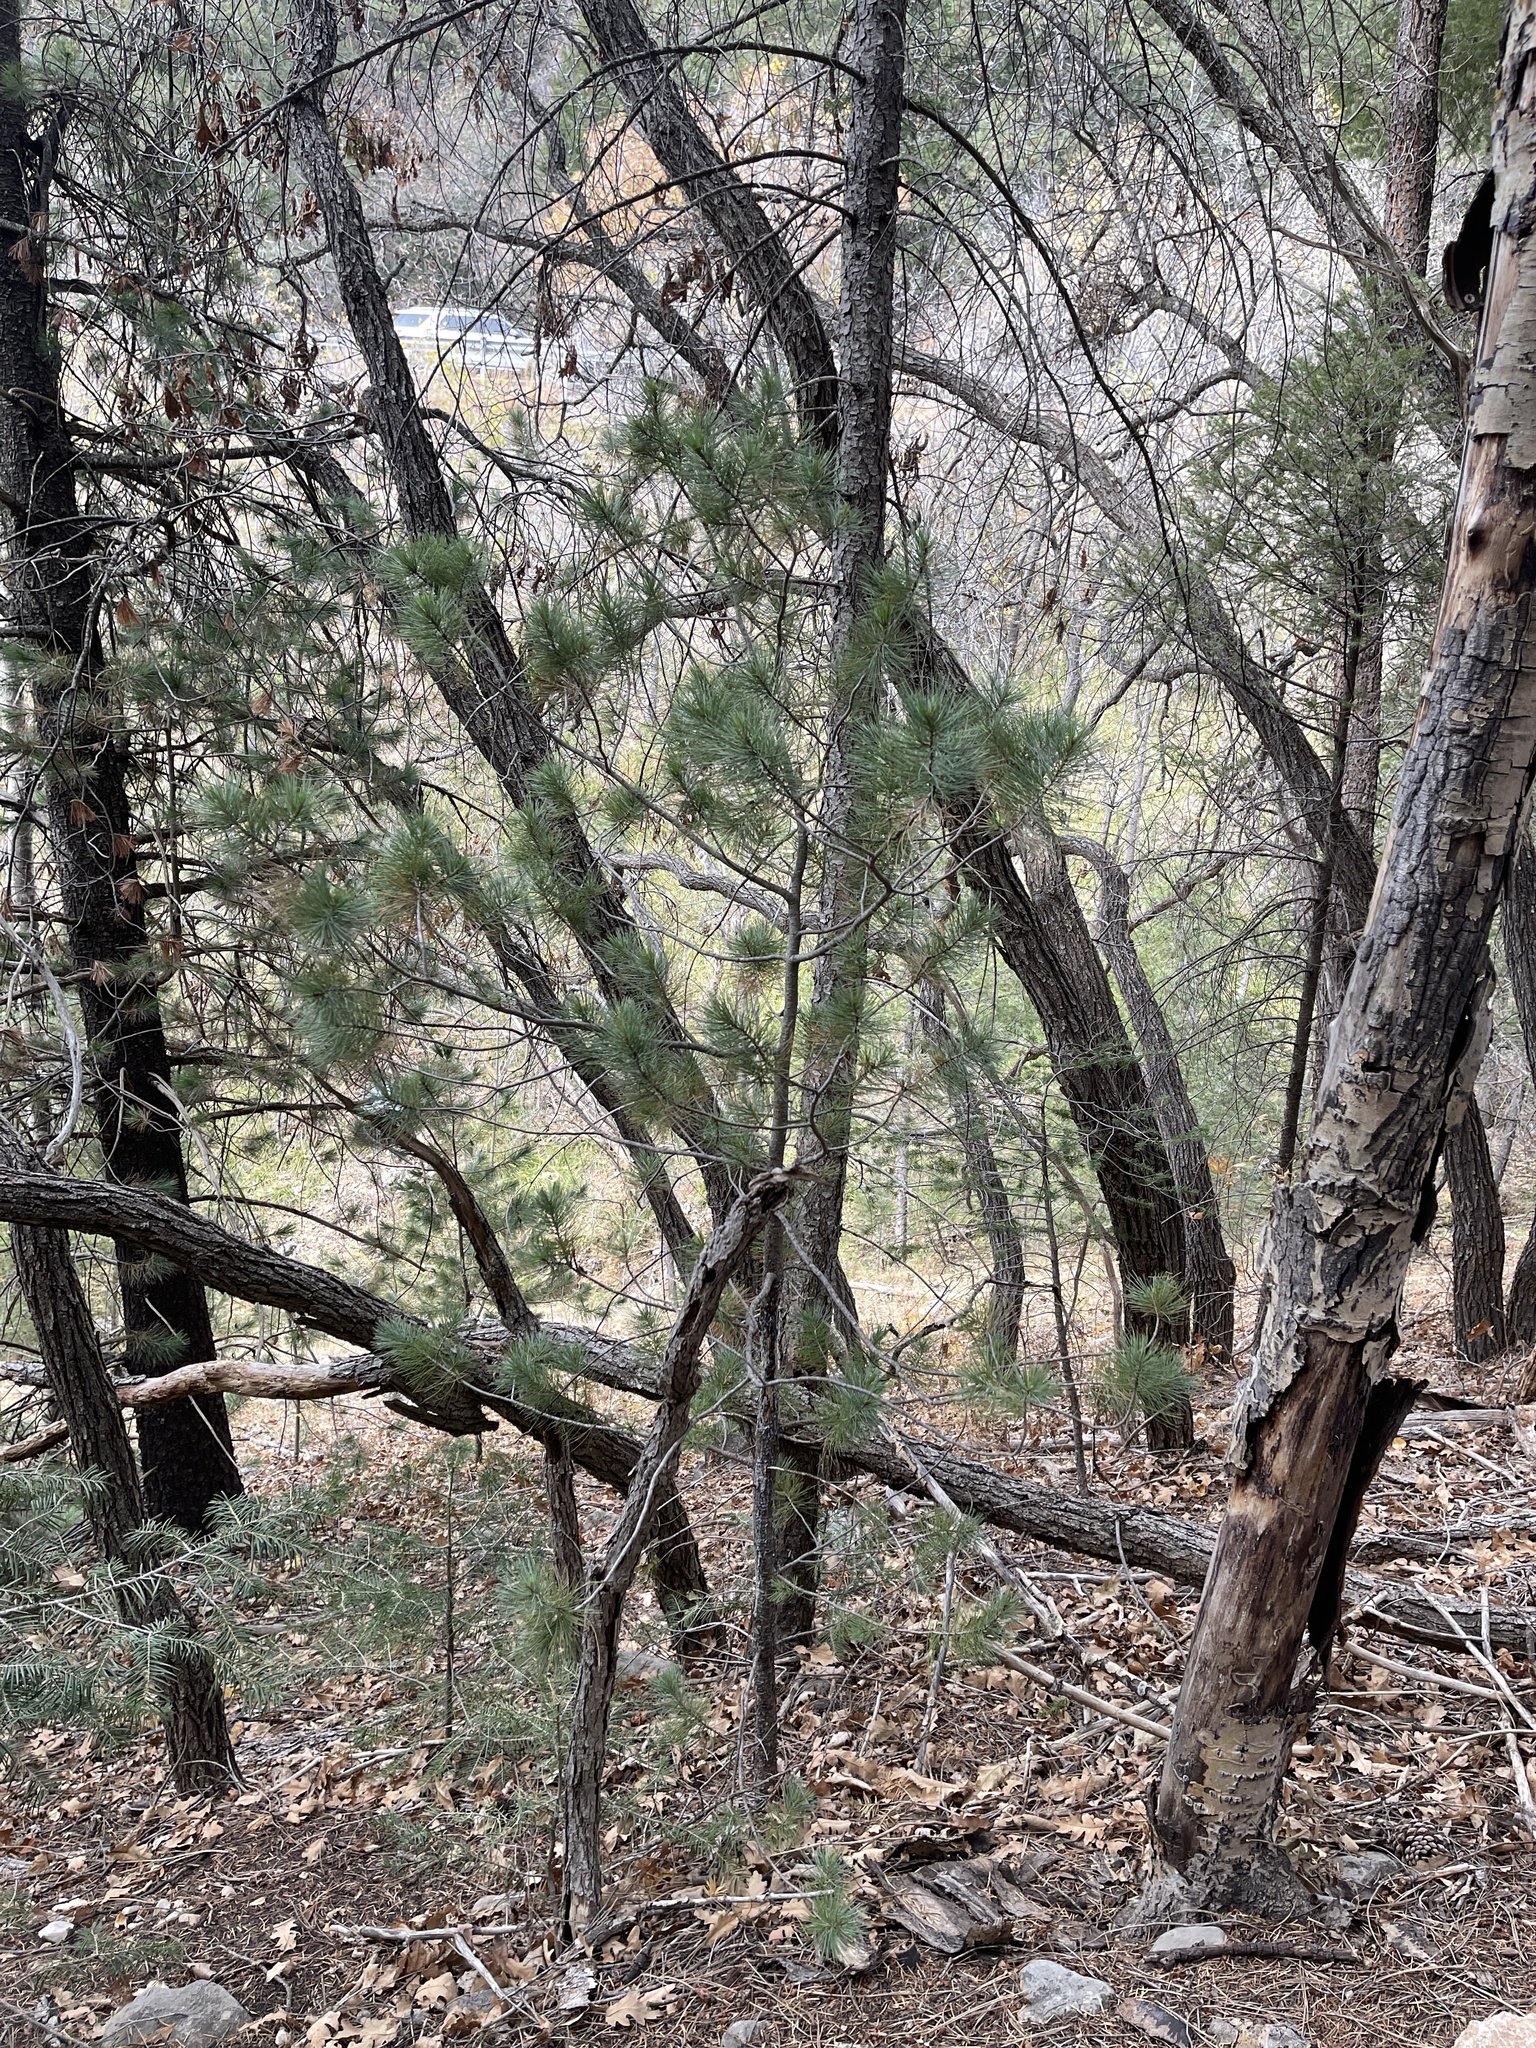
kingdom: Plantae
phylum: Tracheophyta
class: Pinopsida
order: Pinales
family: Pinaceae
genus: Pinus
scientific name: Pinus strobiformis
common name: Southwestern white pine
